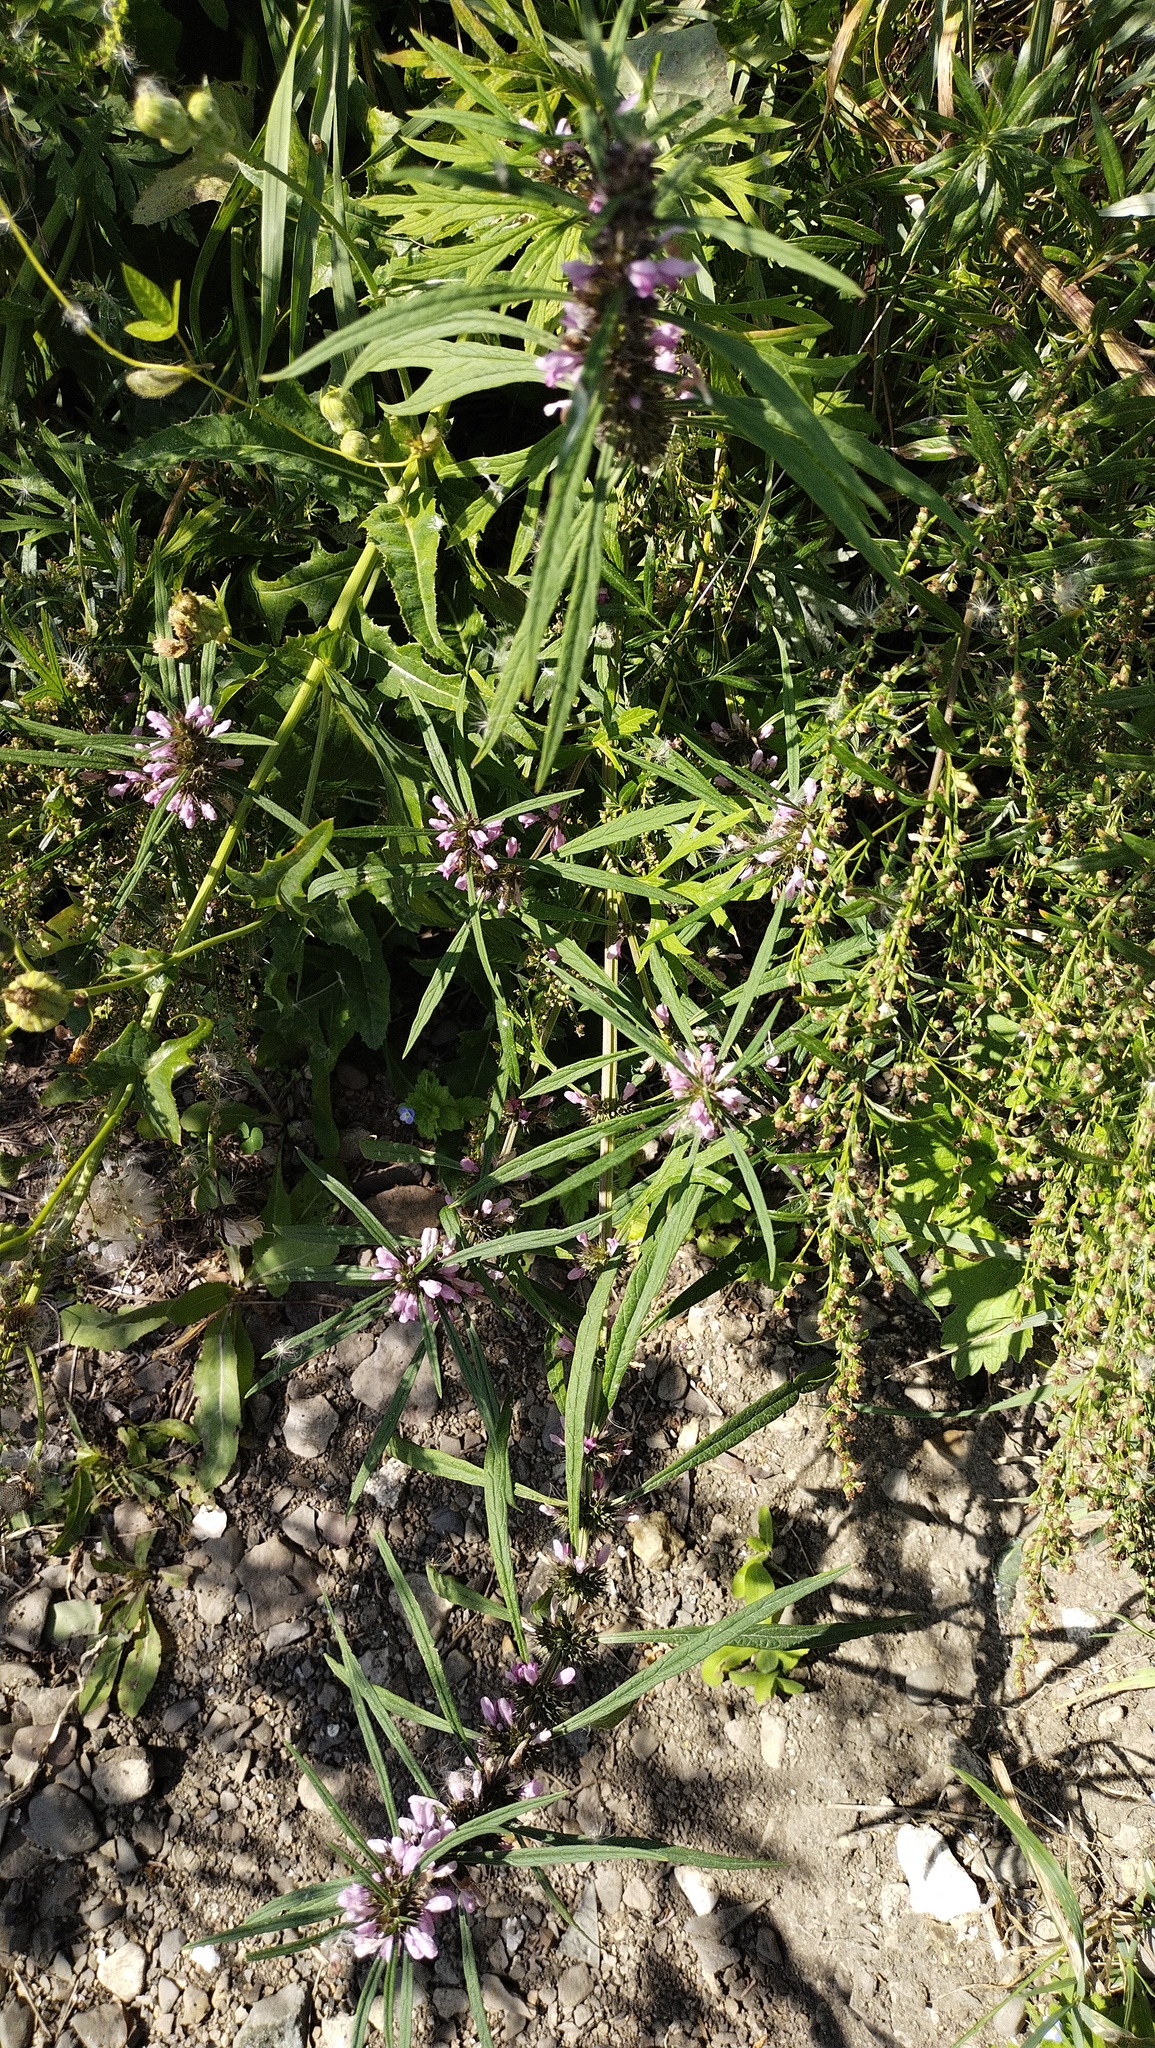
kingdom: Plantae
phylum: Tracheophyta
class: Magnoliopsida
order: Lamiales
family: Lamiaceae
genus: Leonurus
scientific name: Leonurus japonicus
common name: Honeyweed
